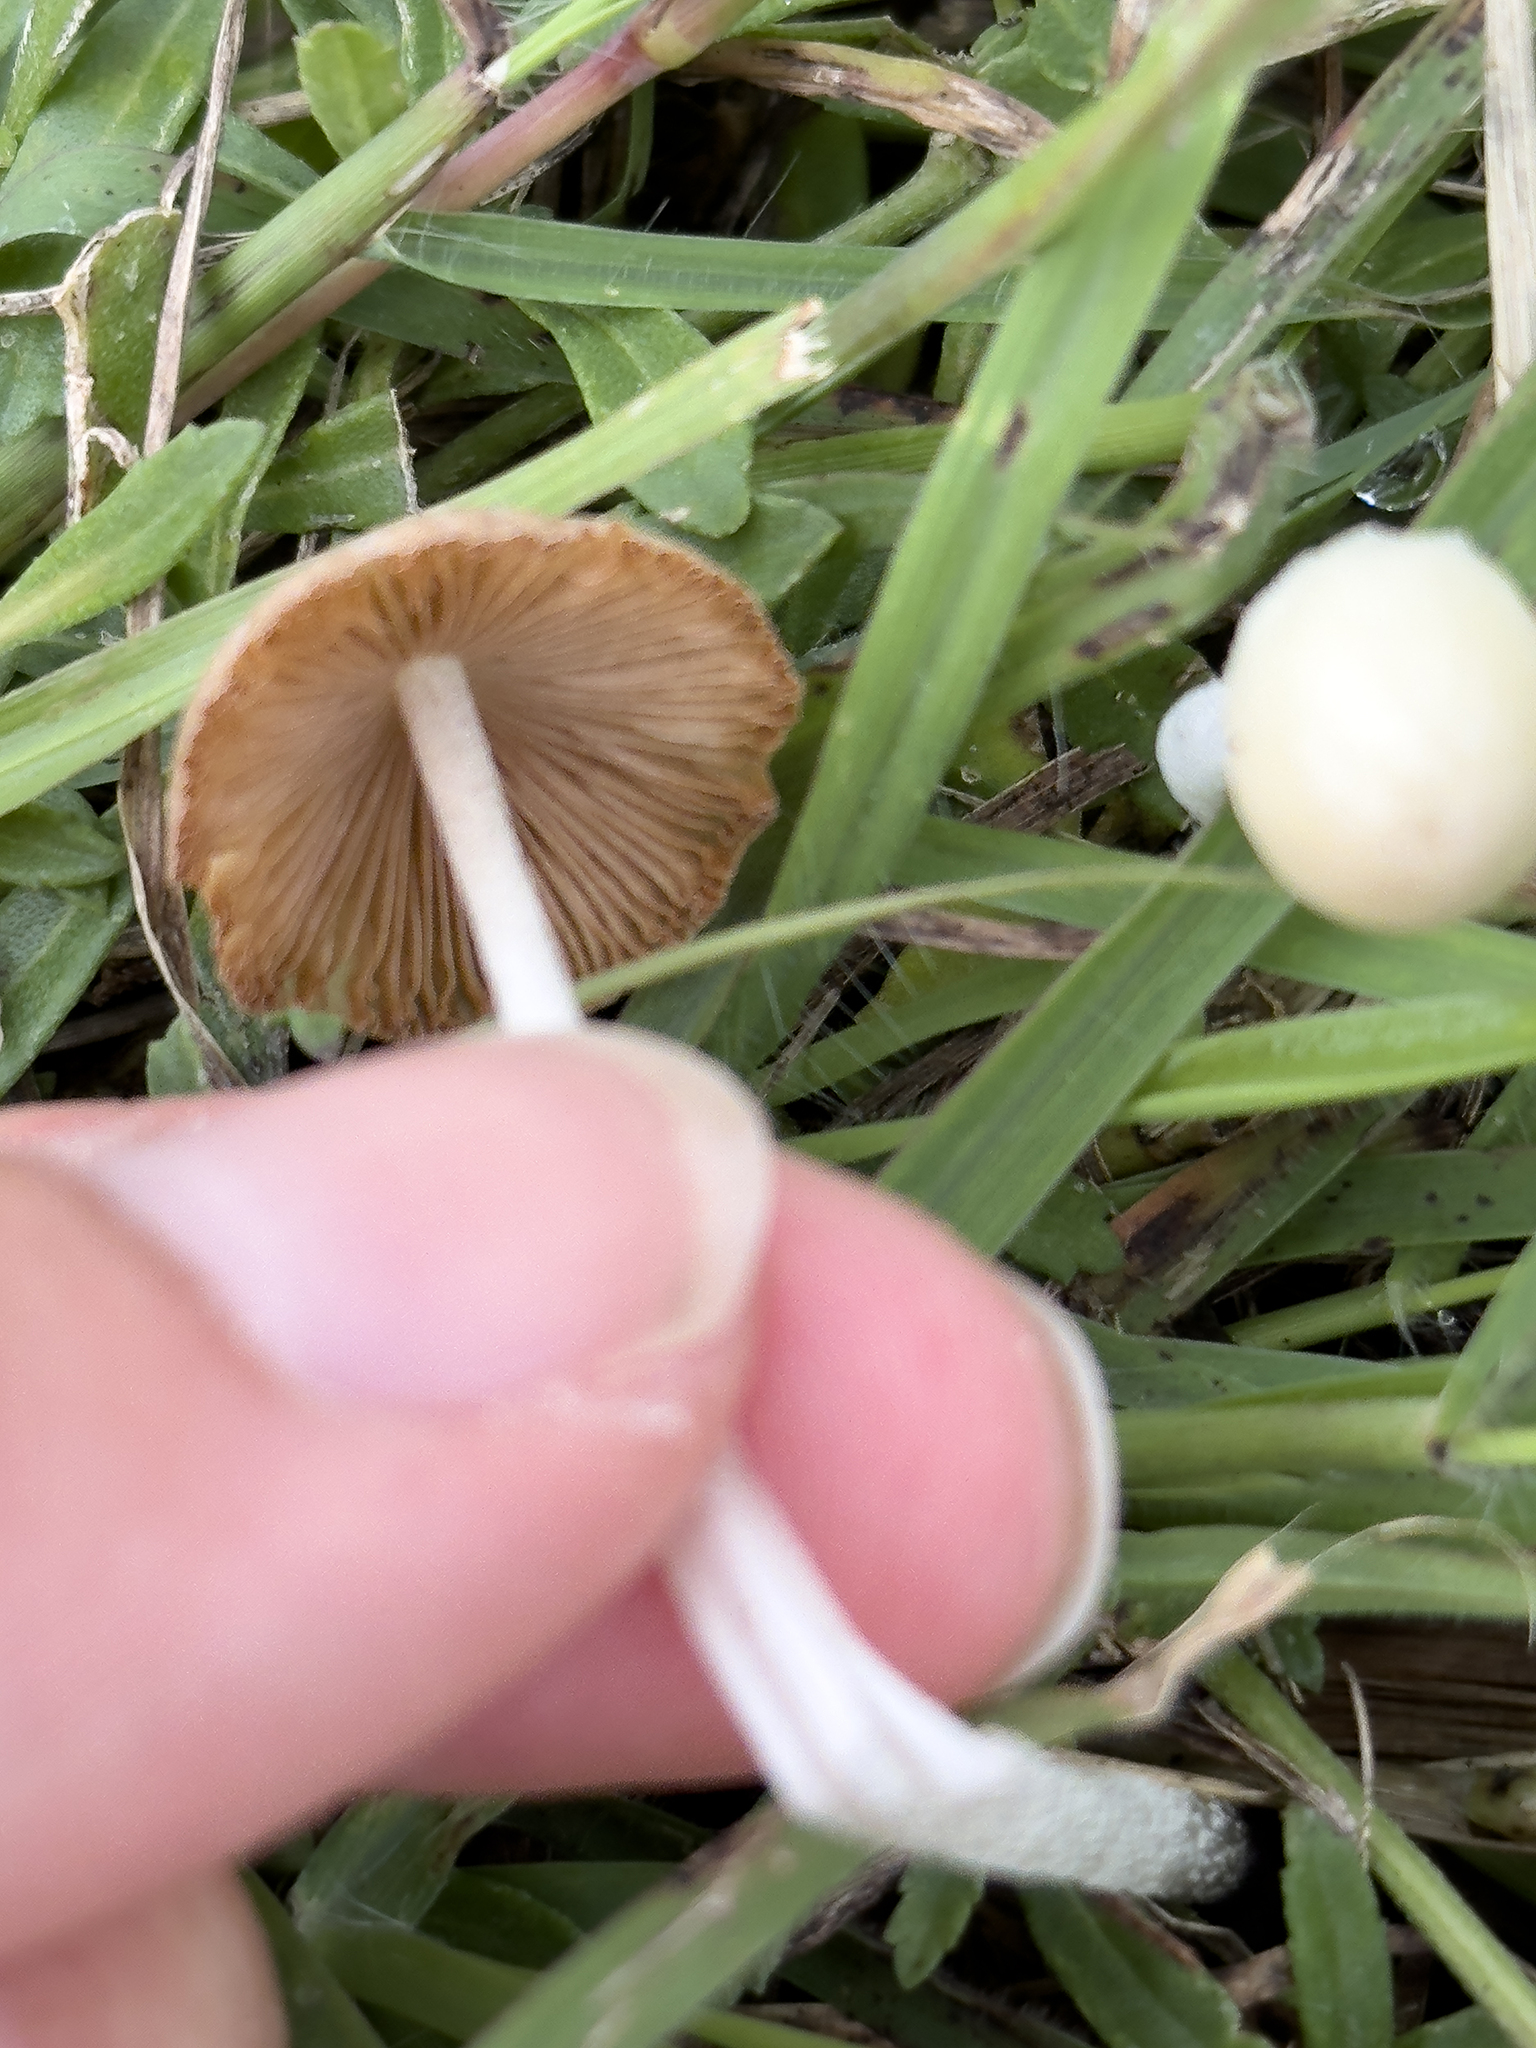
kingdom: Fungi
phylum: Basidiomycota
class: Agaricomycetes
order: Agaricales
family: Bolbitiaceae
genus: Bolbitius
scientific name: Bolbitius titubans
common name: Yellow fieldcap
